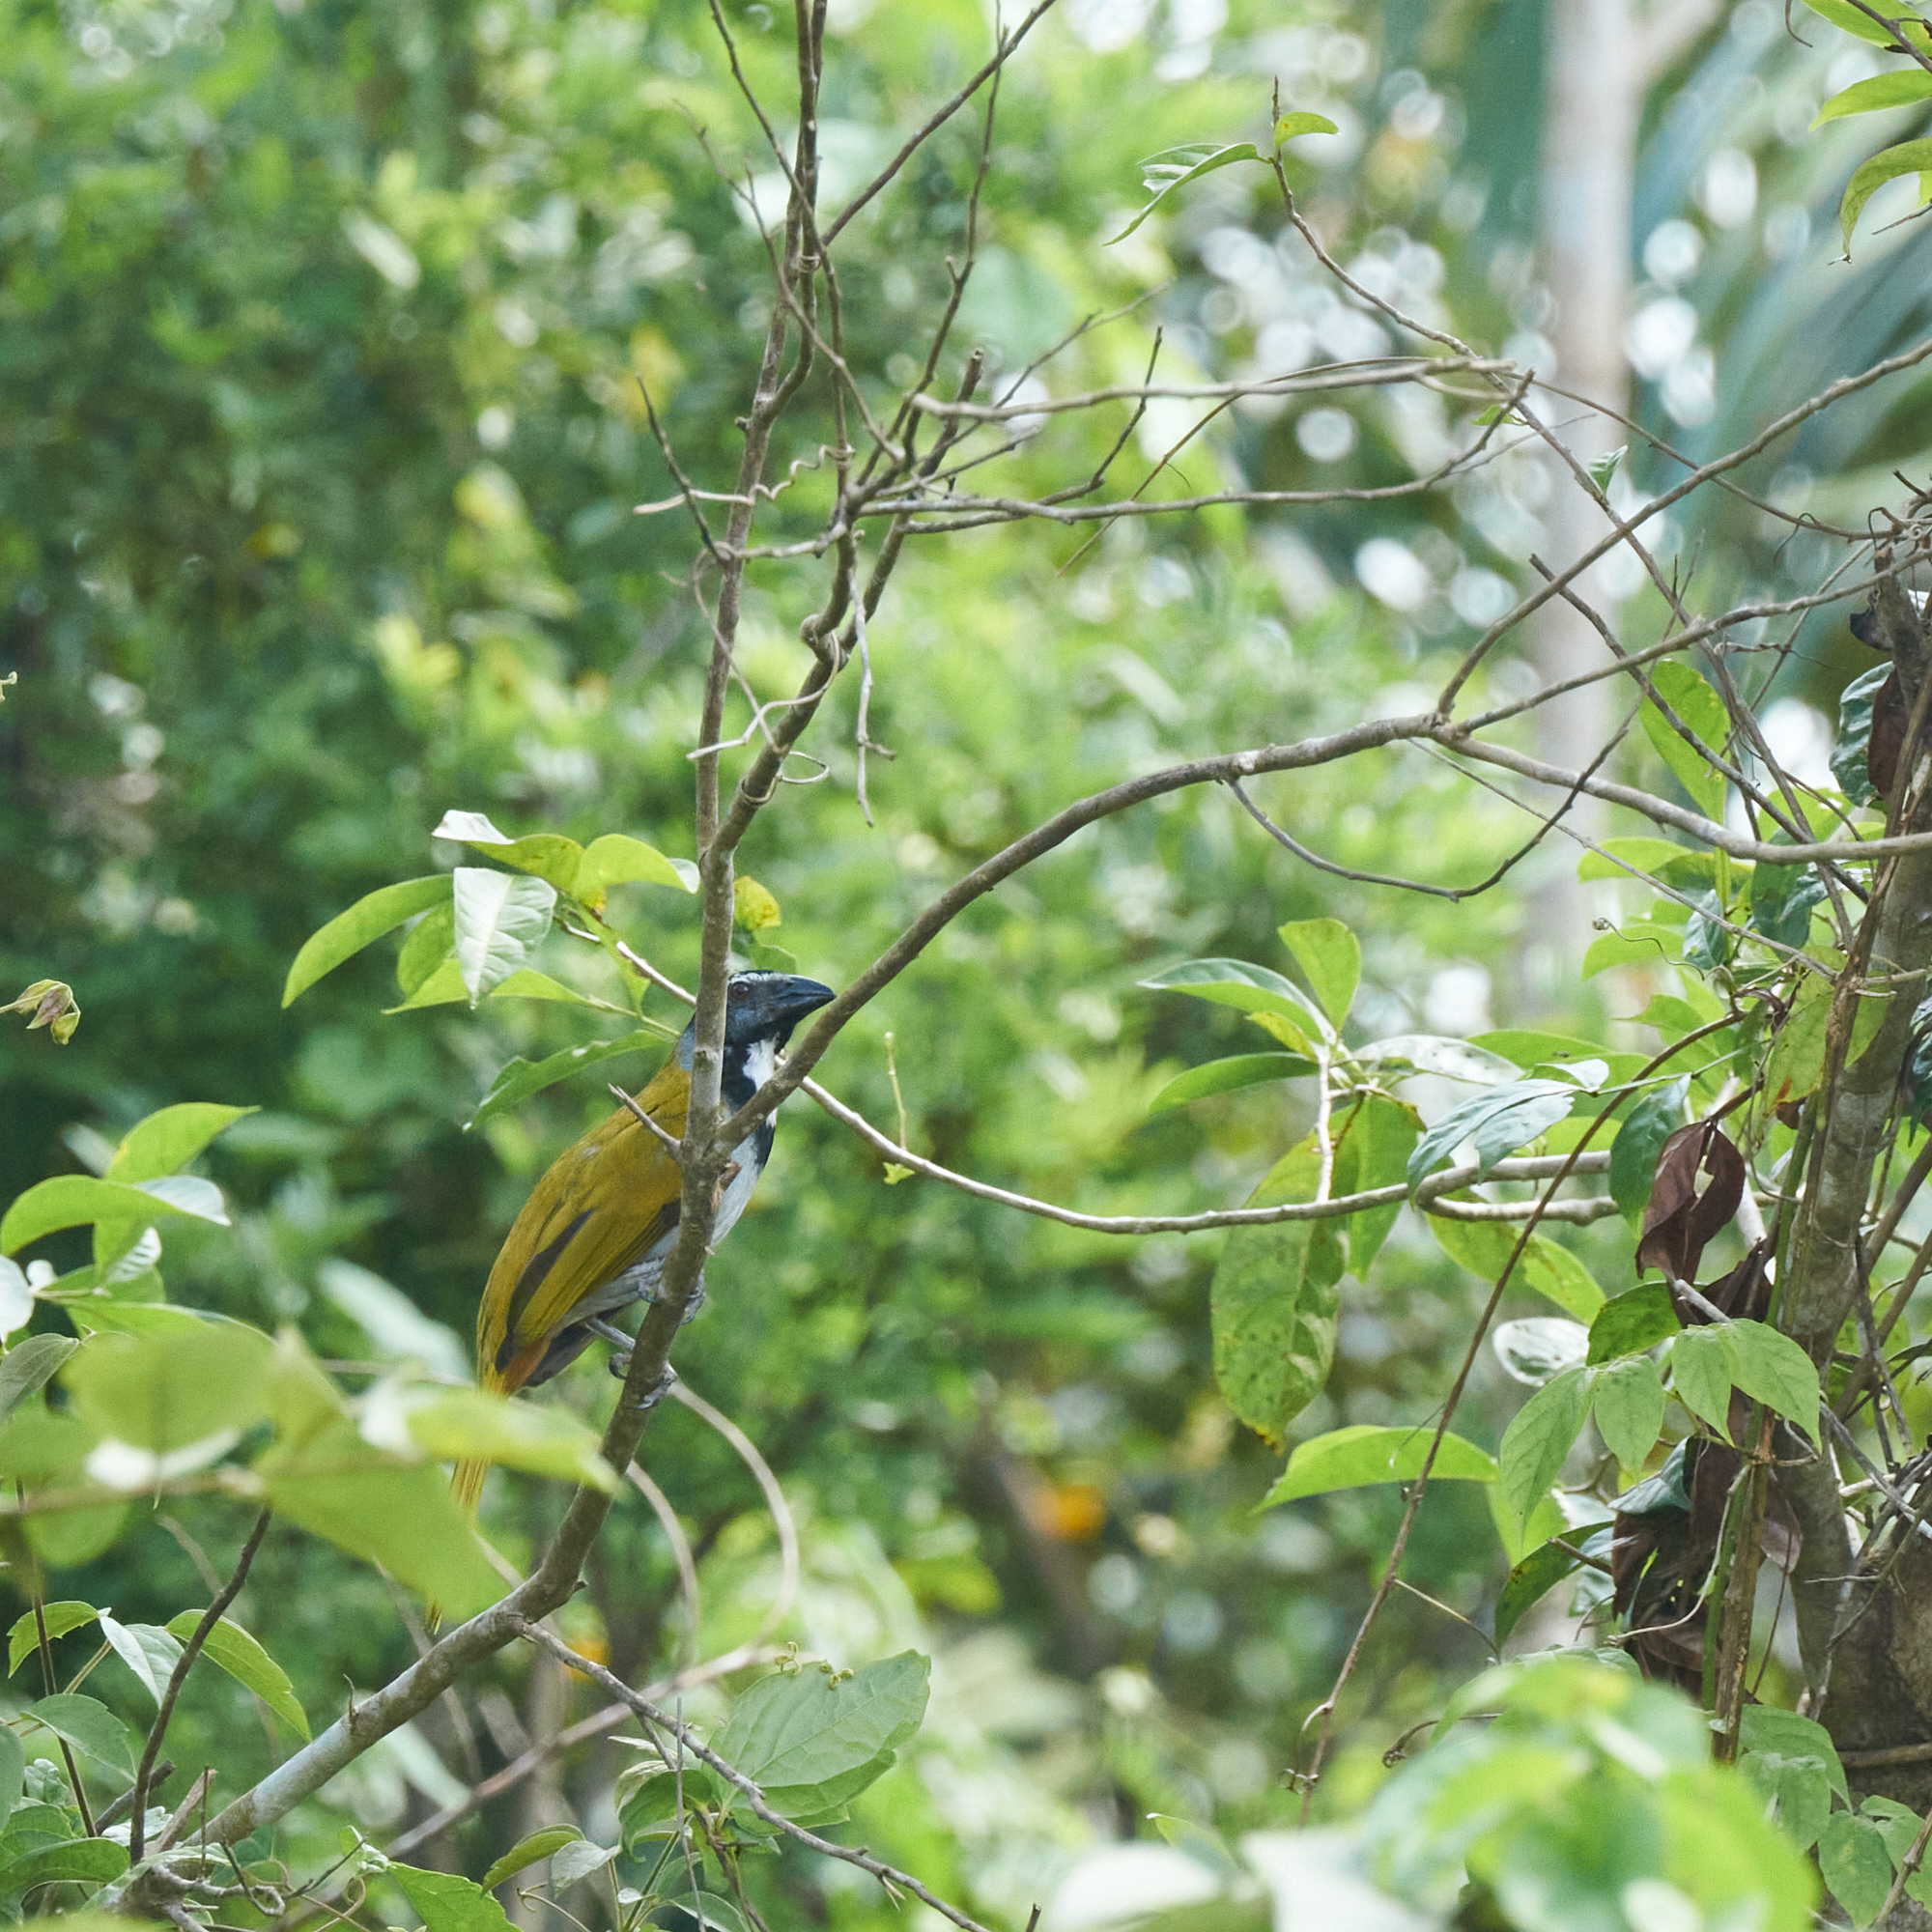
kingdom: Animalia
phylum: Chordata
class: Aves
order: Passeriformes
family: Thraupidae
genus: Saltator
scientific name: Saltator atriceps
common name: Black-headed saltator
